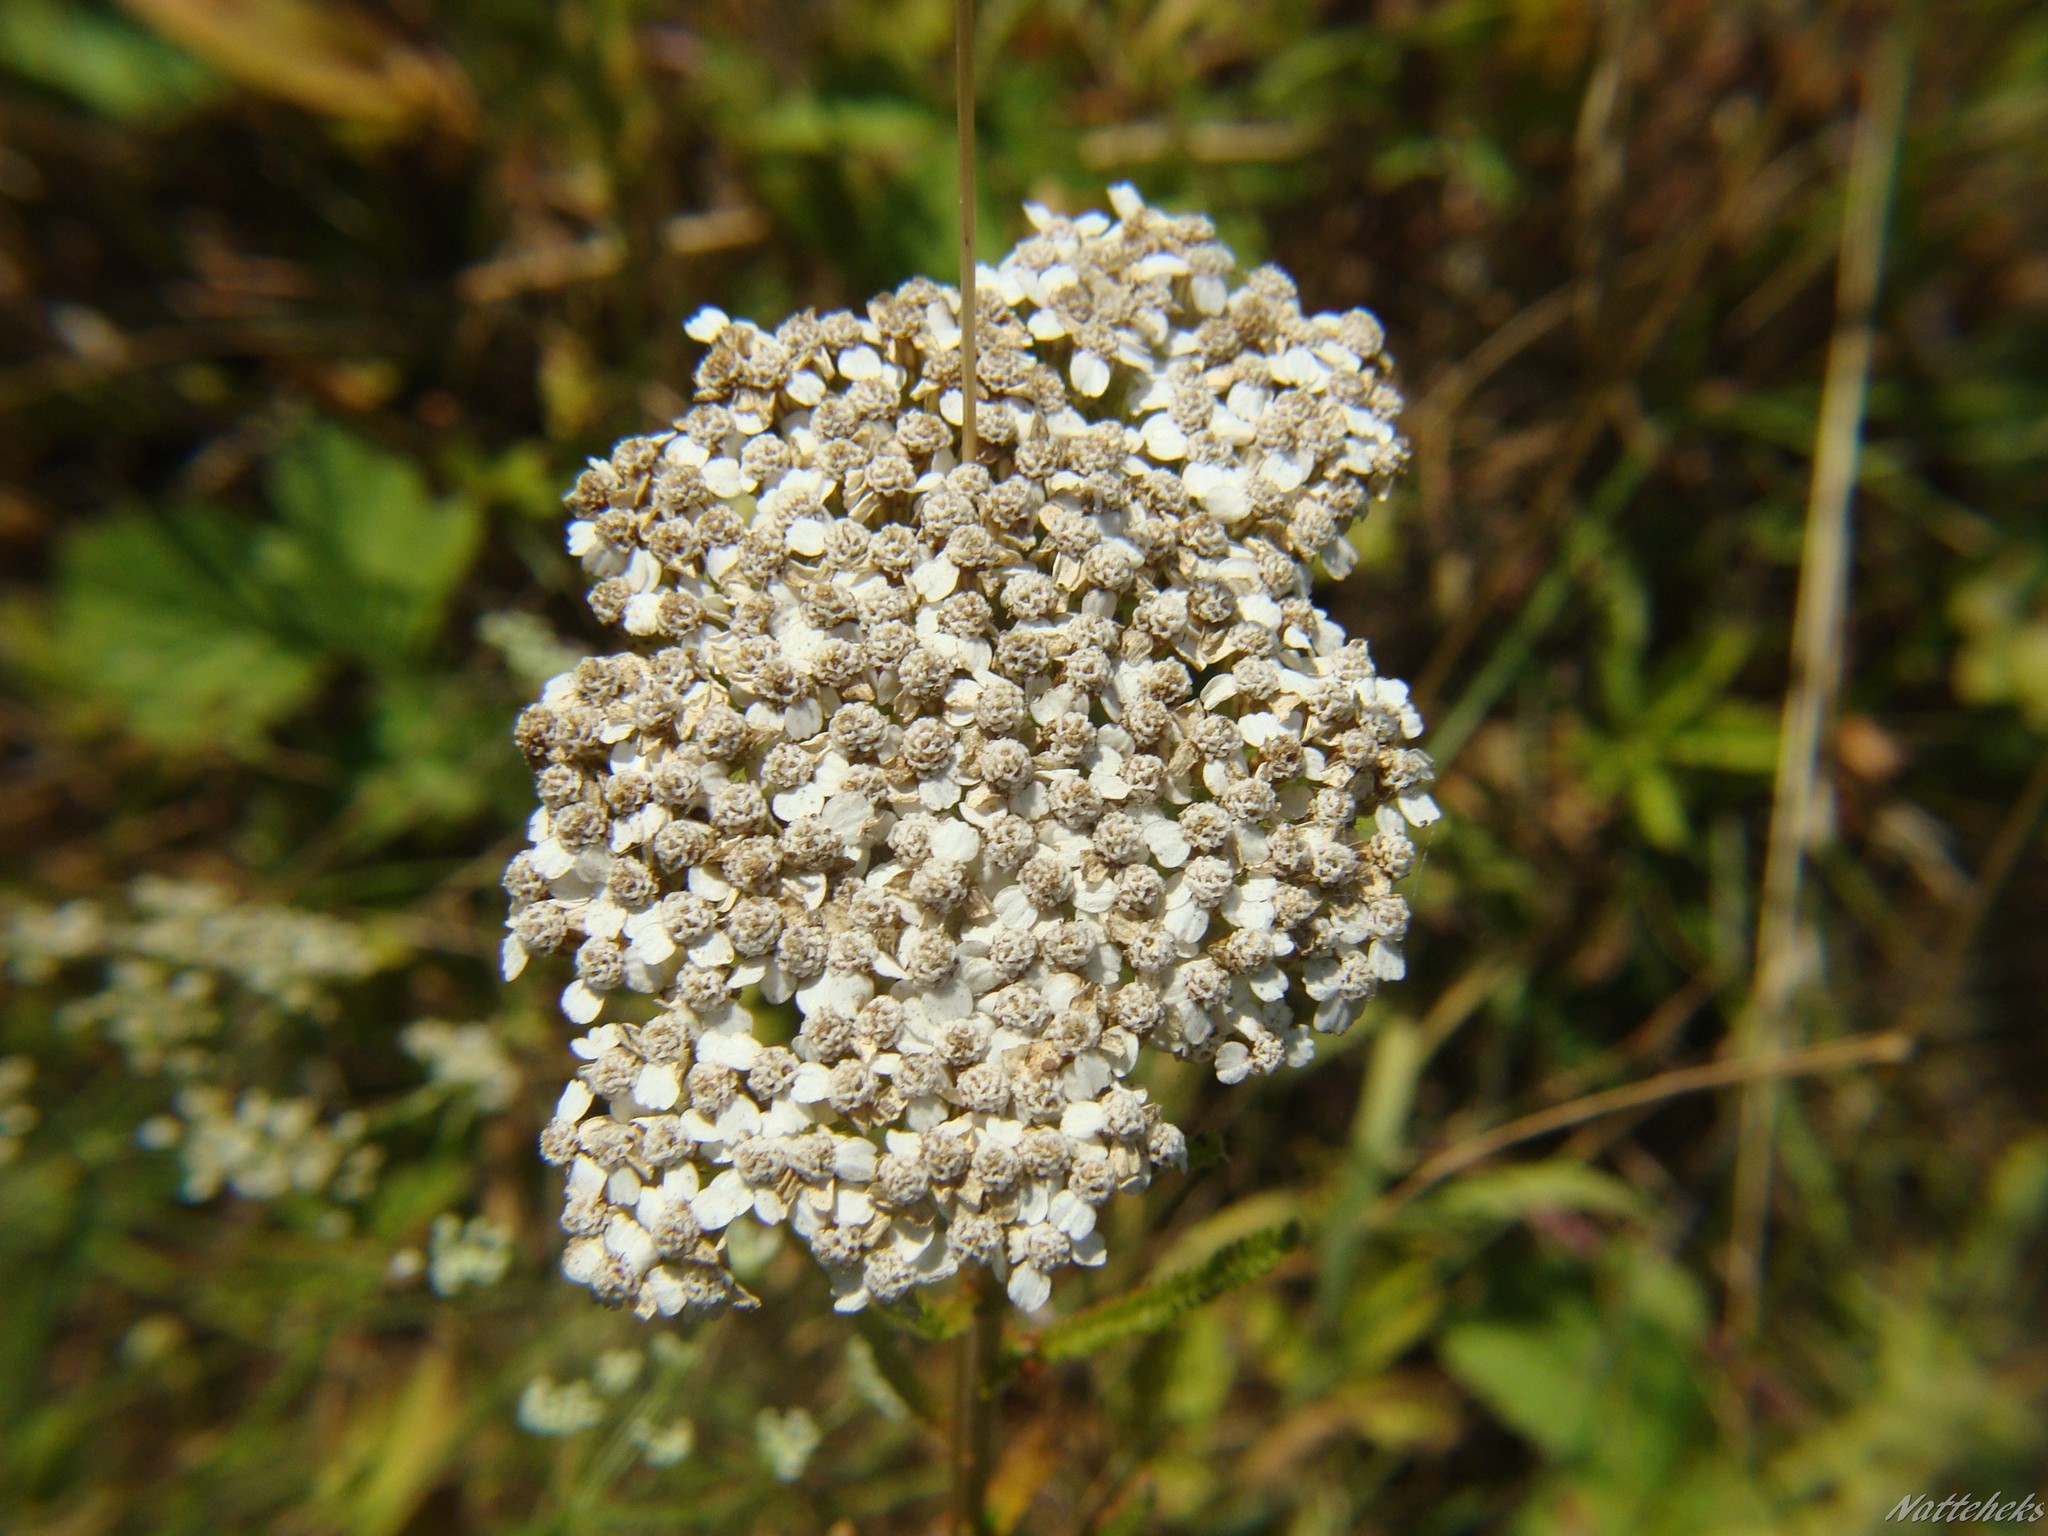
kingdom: Plantae
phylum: Tracheophyta
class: Magnoliopsida
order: Asterales
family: Asteraceae
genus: Achillea
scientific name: Achillea millefolium
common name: Yarrow
